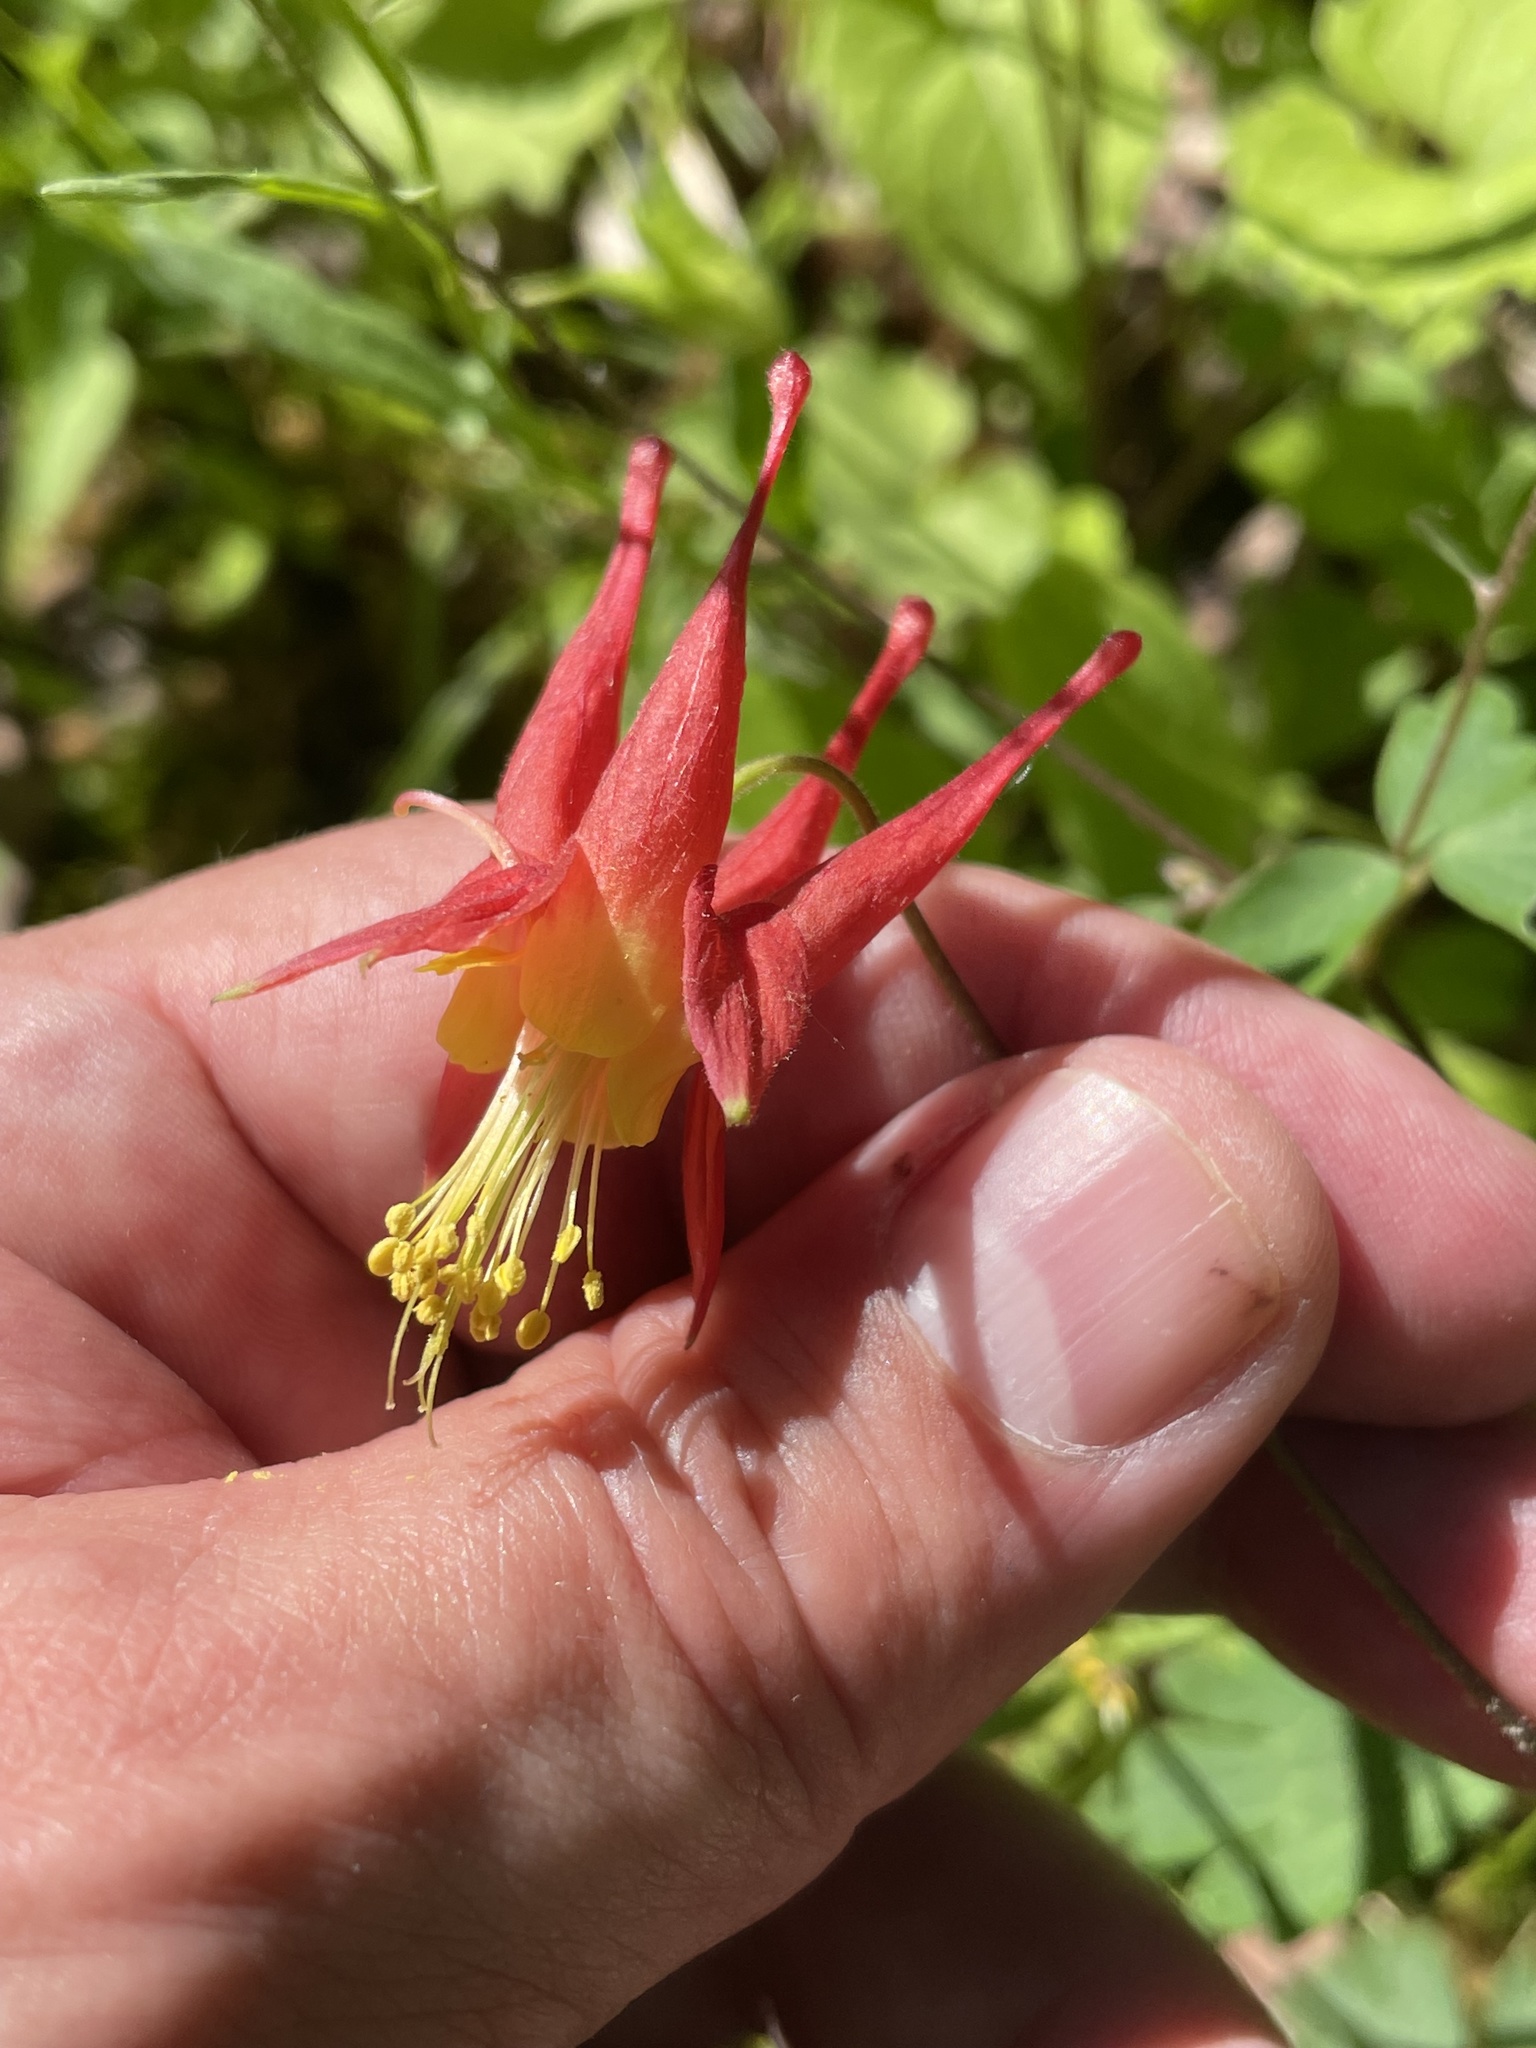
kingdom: Plantae
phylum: Tracheophyta
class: Magnoliopsida
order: Ranunculales
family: Ranunculaceae
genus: Aquilegia
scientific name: Aquilegia canadensis
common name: American columbine
